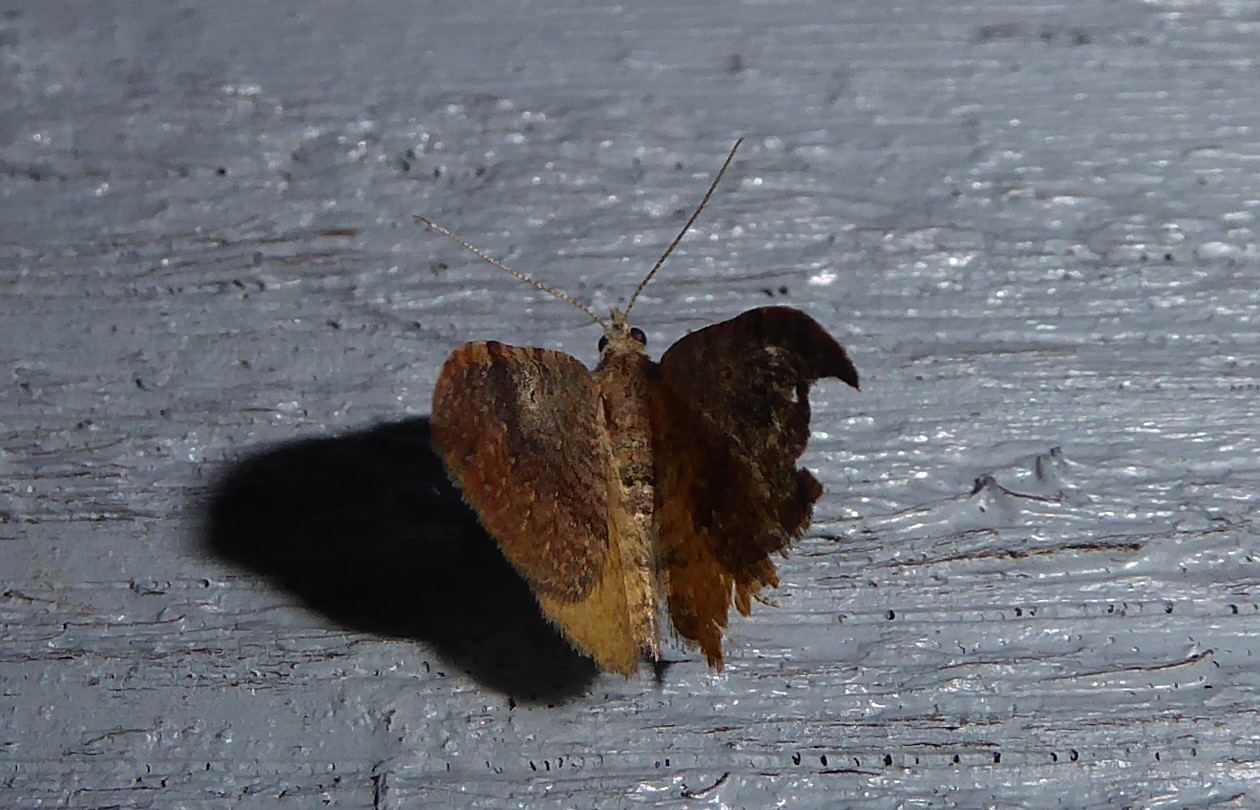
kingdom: Animalia
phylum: Arthropoda
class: Insecta
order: Lepidoptera
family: Geometridae
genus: Homodotis
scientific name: Homodotis megaspilata
